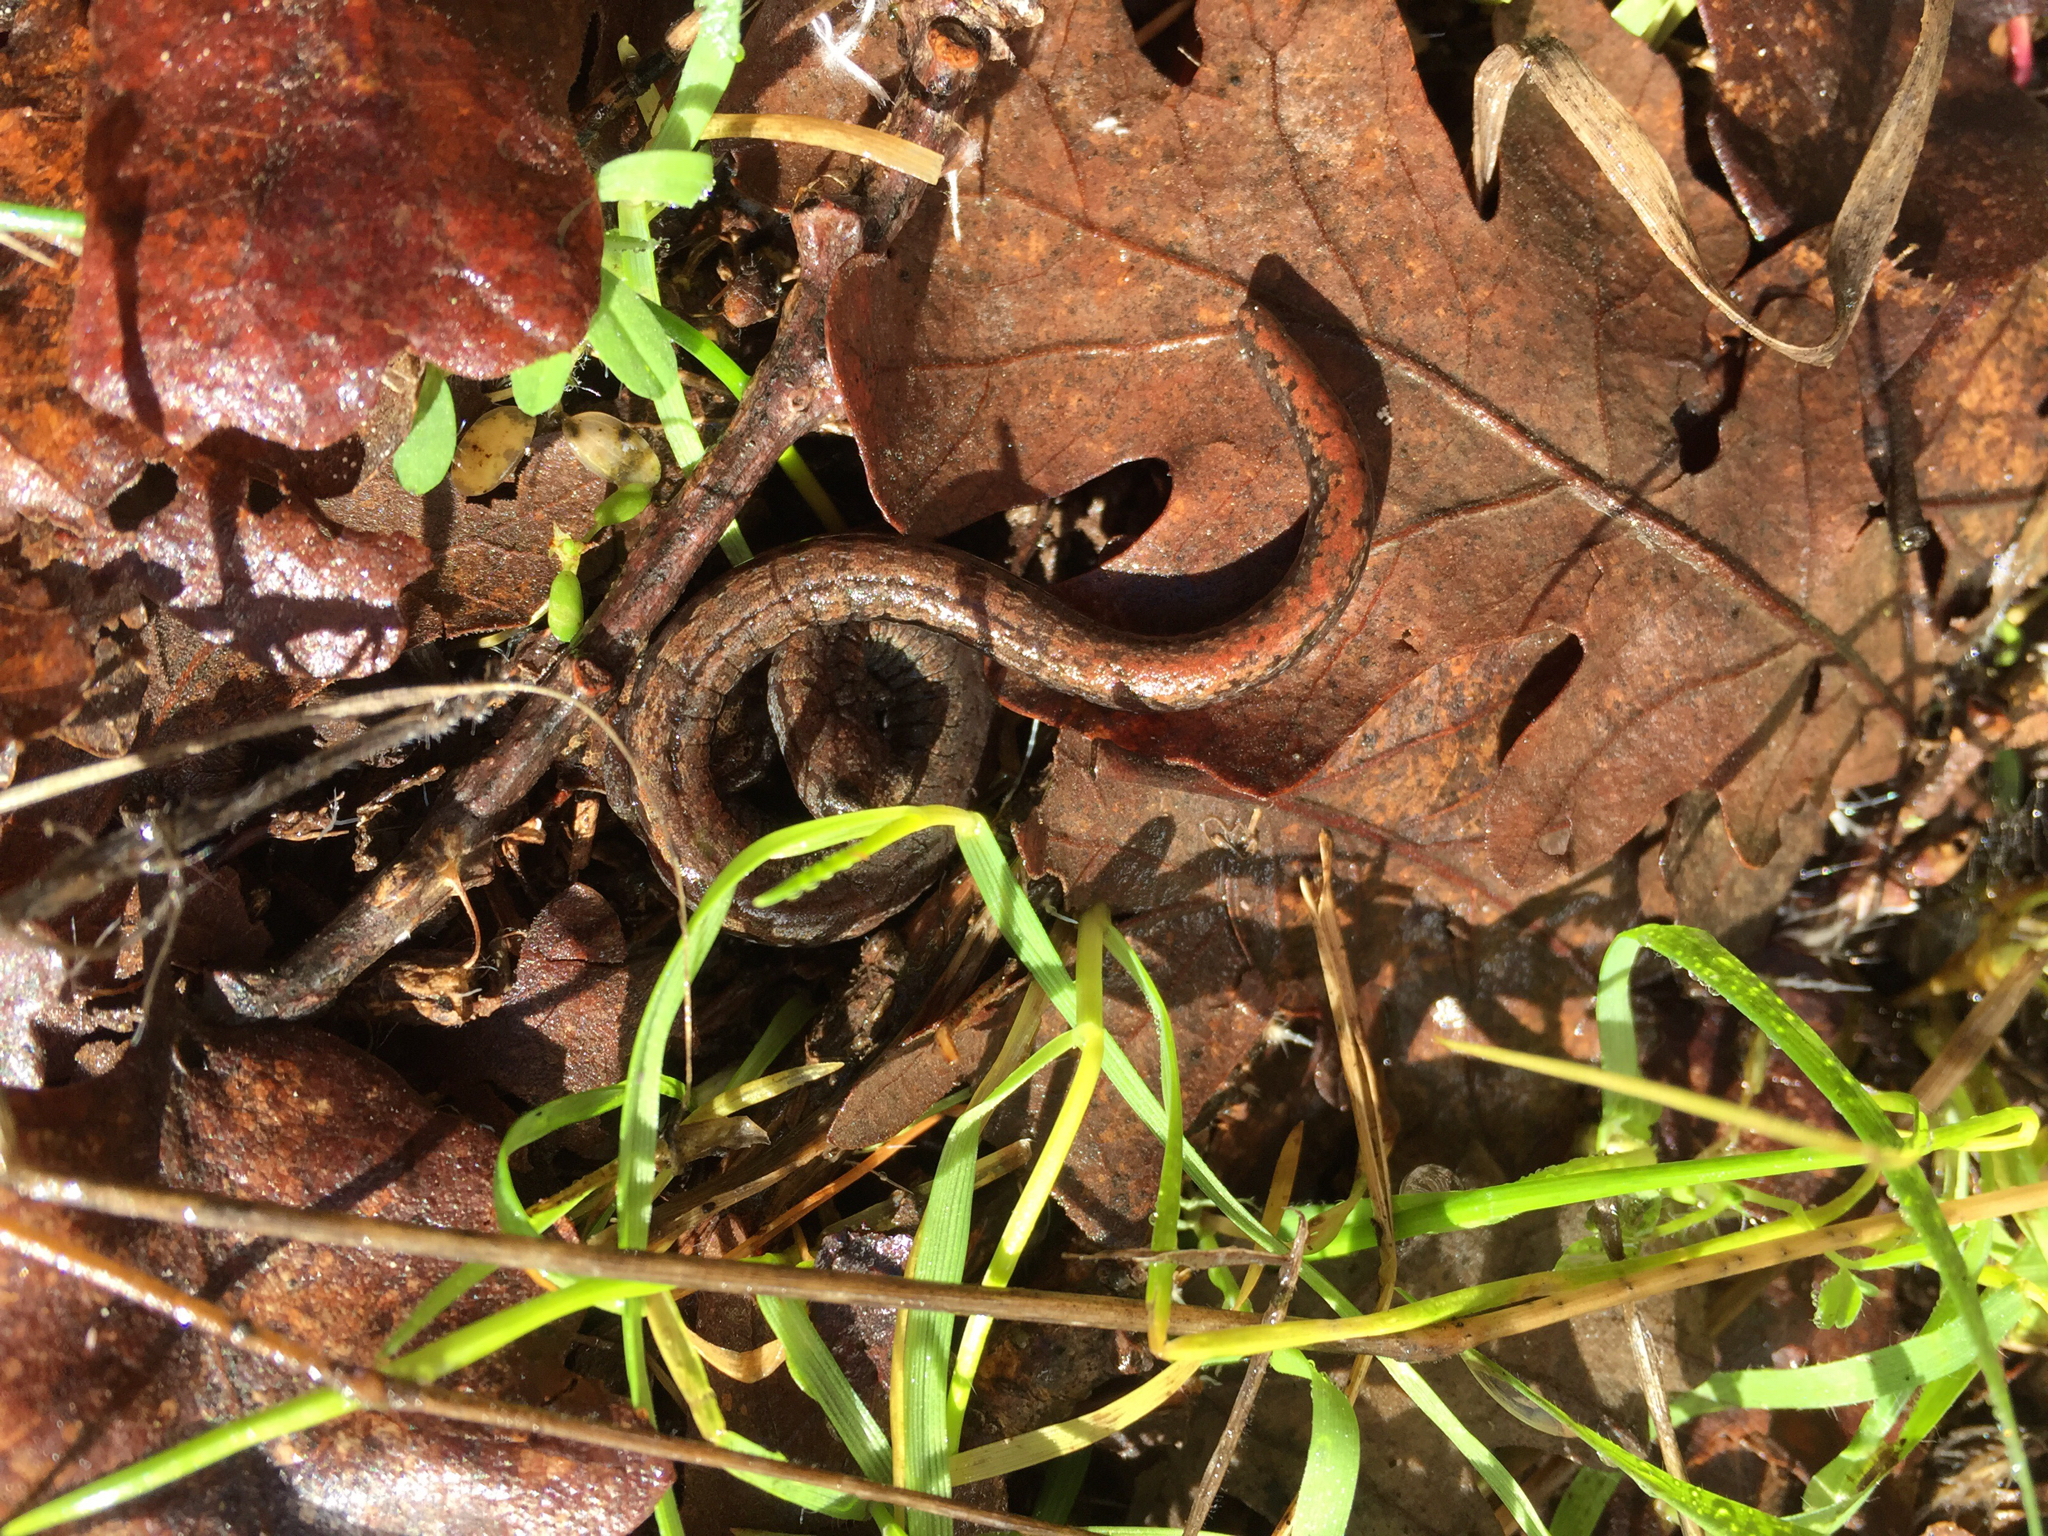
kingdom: Animalia
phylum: Chordata
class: Amphibia
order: Caudata
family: Plethodontidae
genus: Batrachoseps
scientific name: Batrachoseps attenuatus
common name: California slender salamander
